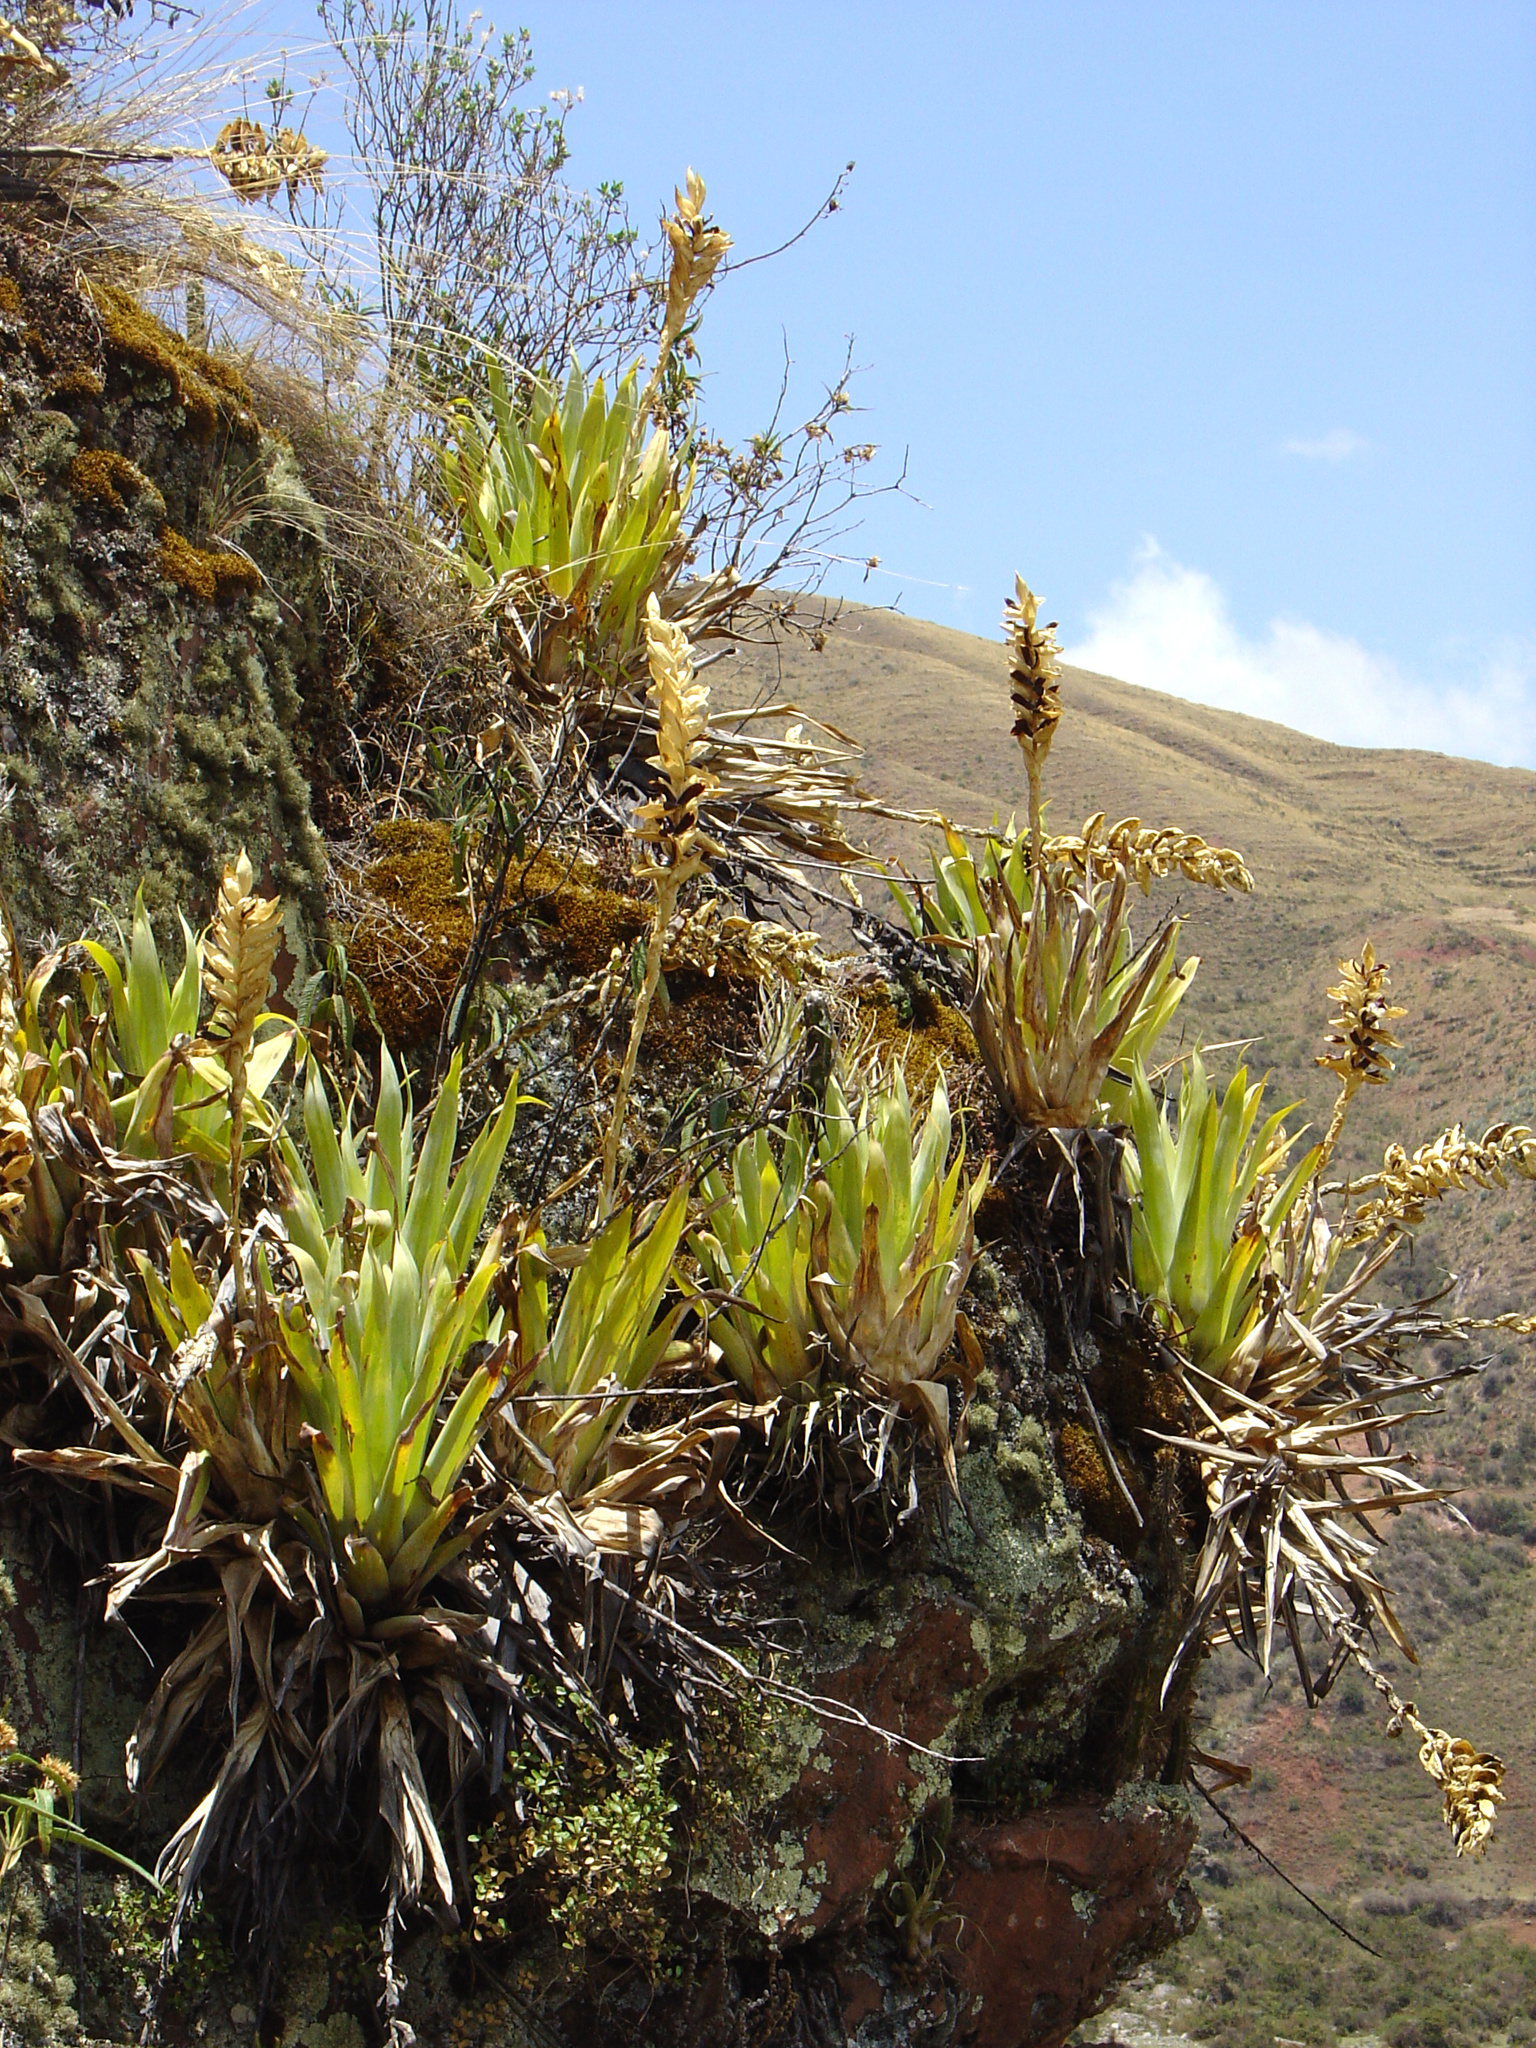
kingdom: Plantae
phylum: Tracheophyta
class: Liliopsida
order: Poales
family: Bromeliaceae
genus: Tillandsia
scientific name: Tillandsia walteri
